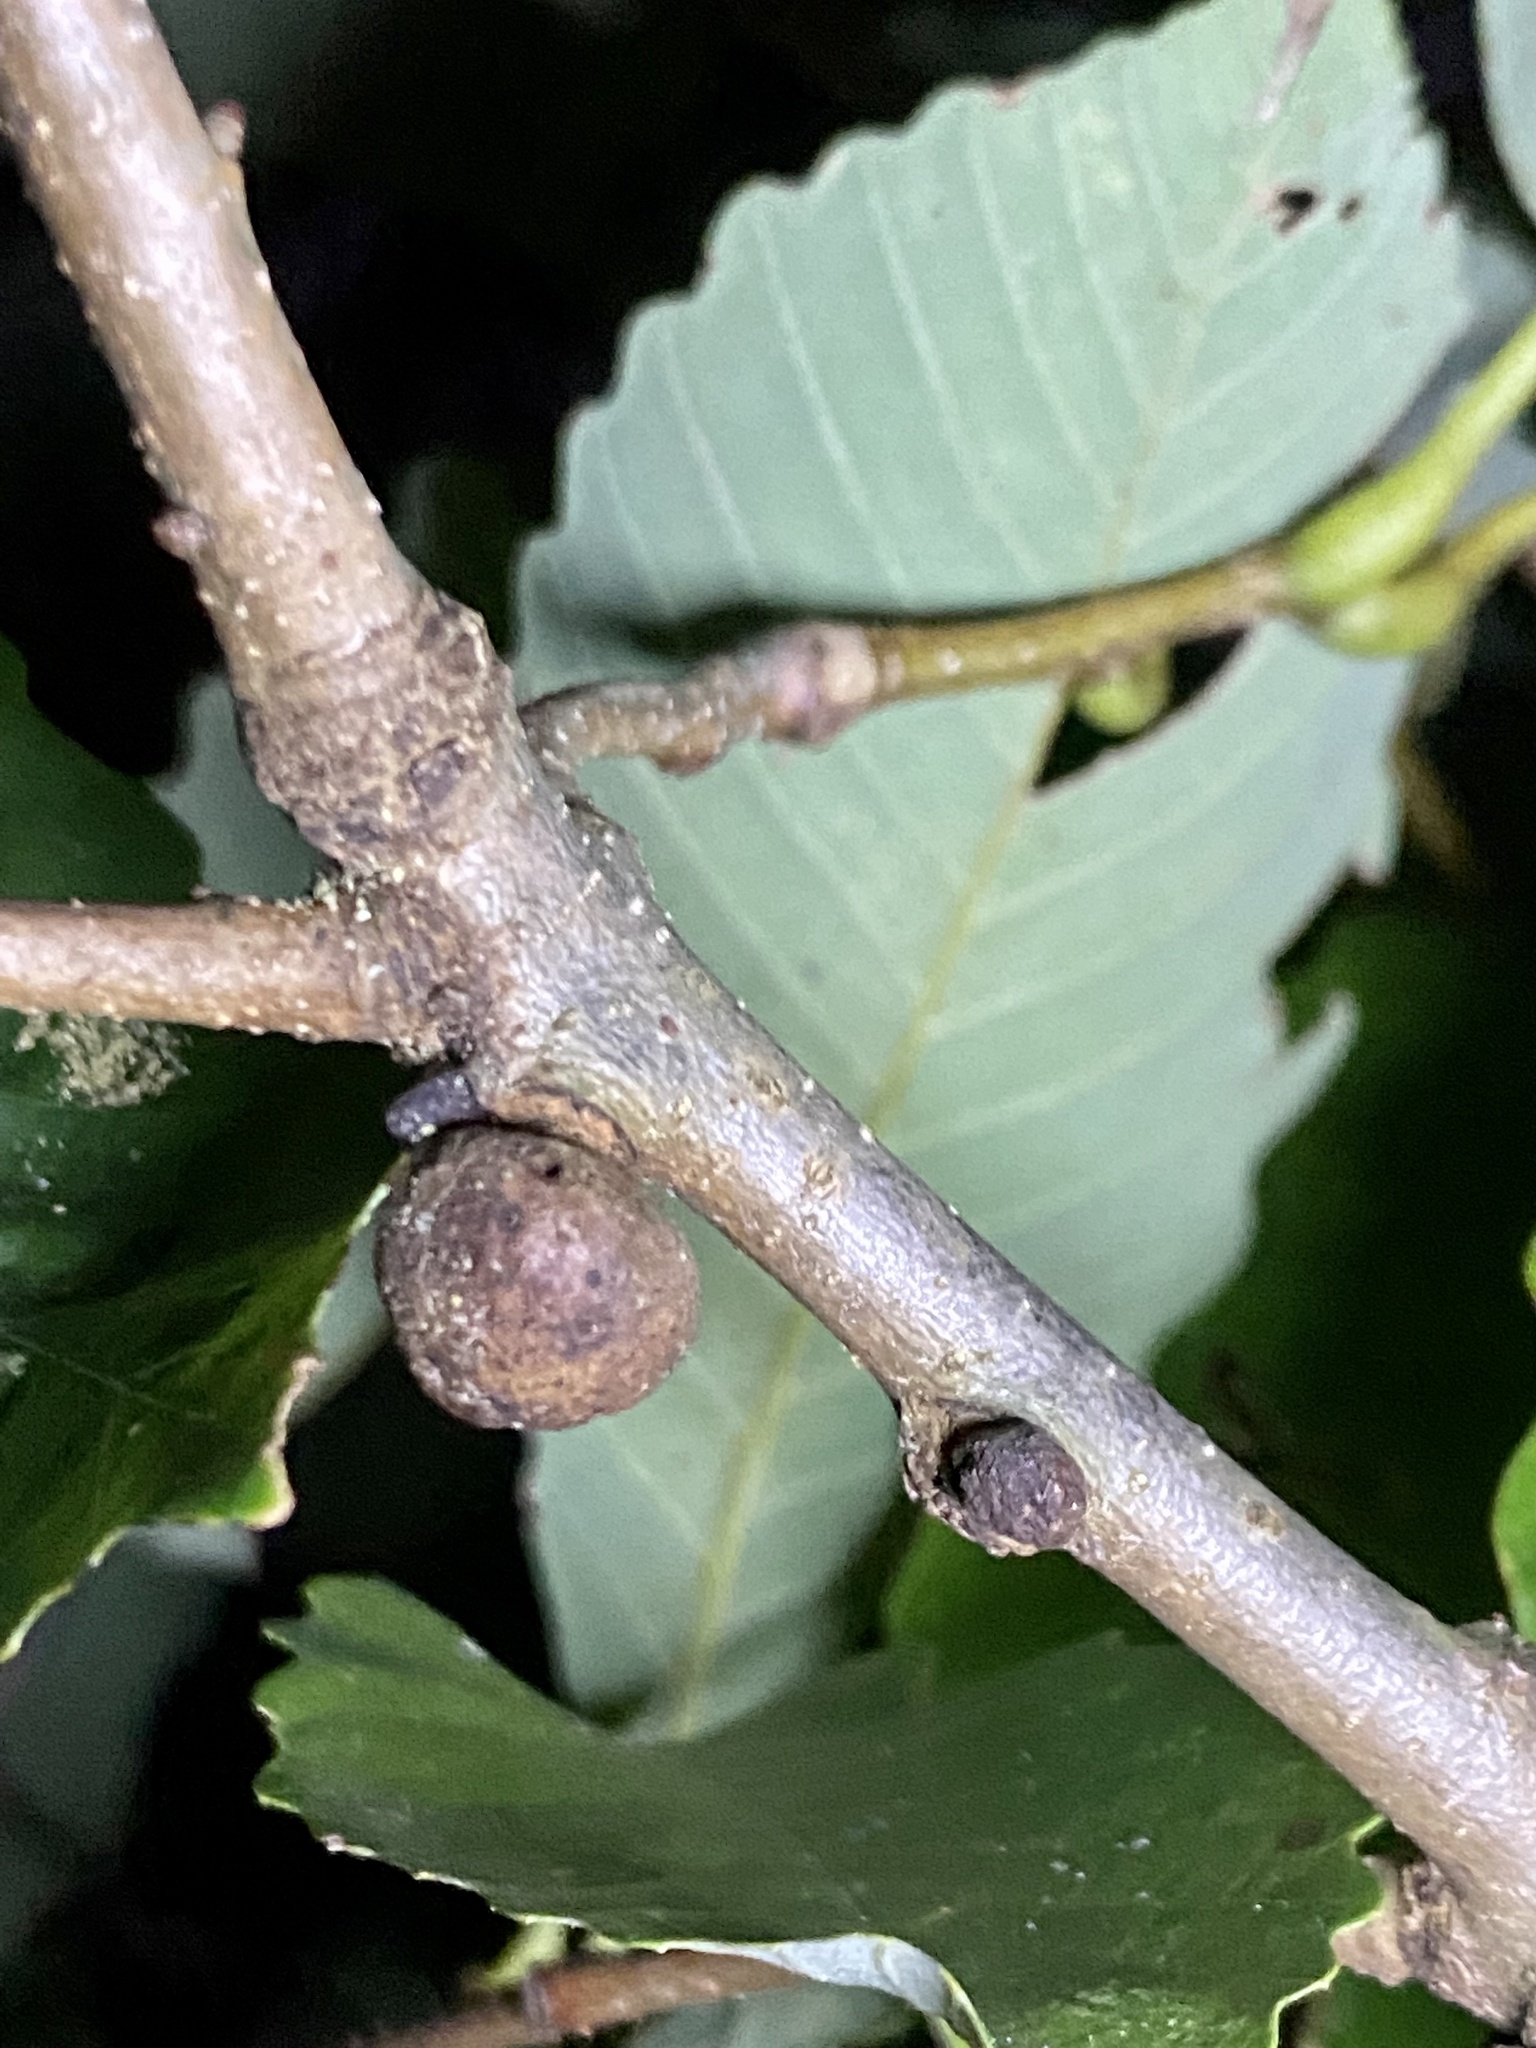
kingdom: Animalia
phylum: Arthropoda
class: Insecta
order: Hymenoptera
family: Cynipidae
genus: Disholcaspis
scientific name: Disholcaspis quercusglobulus
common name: Round bullet gall wasp
